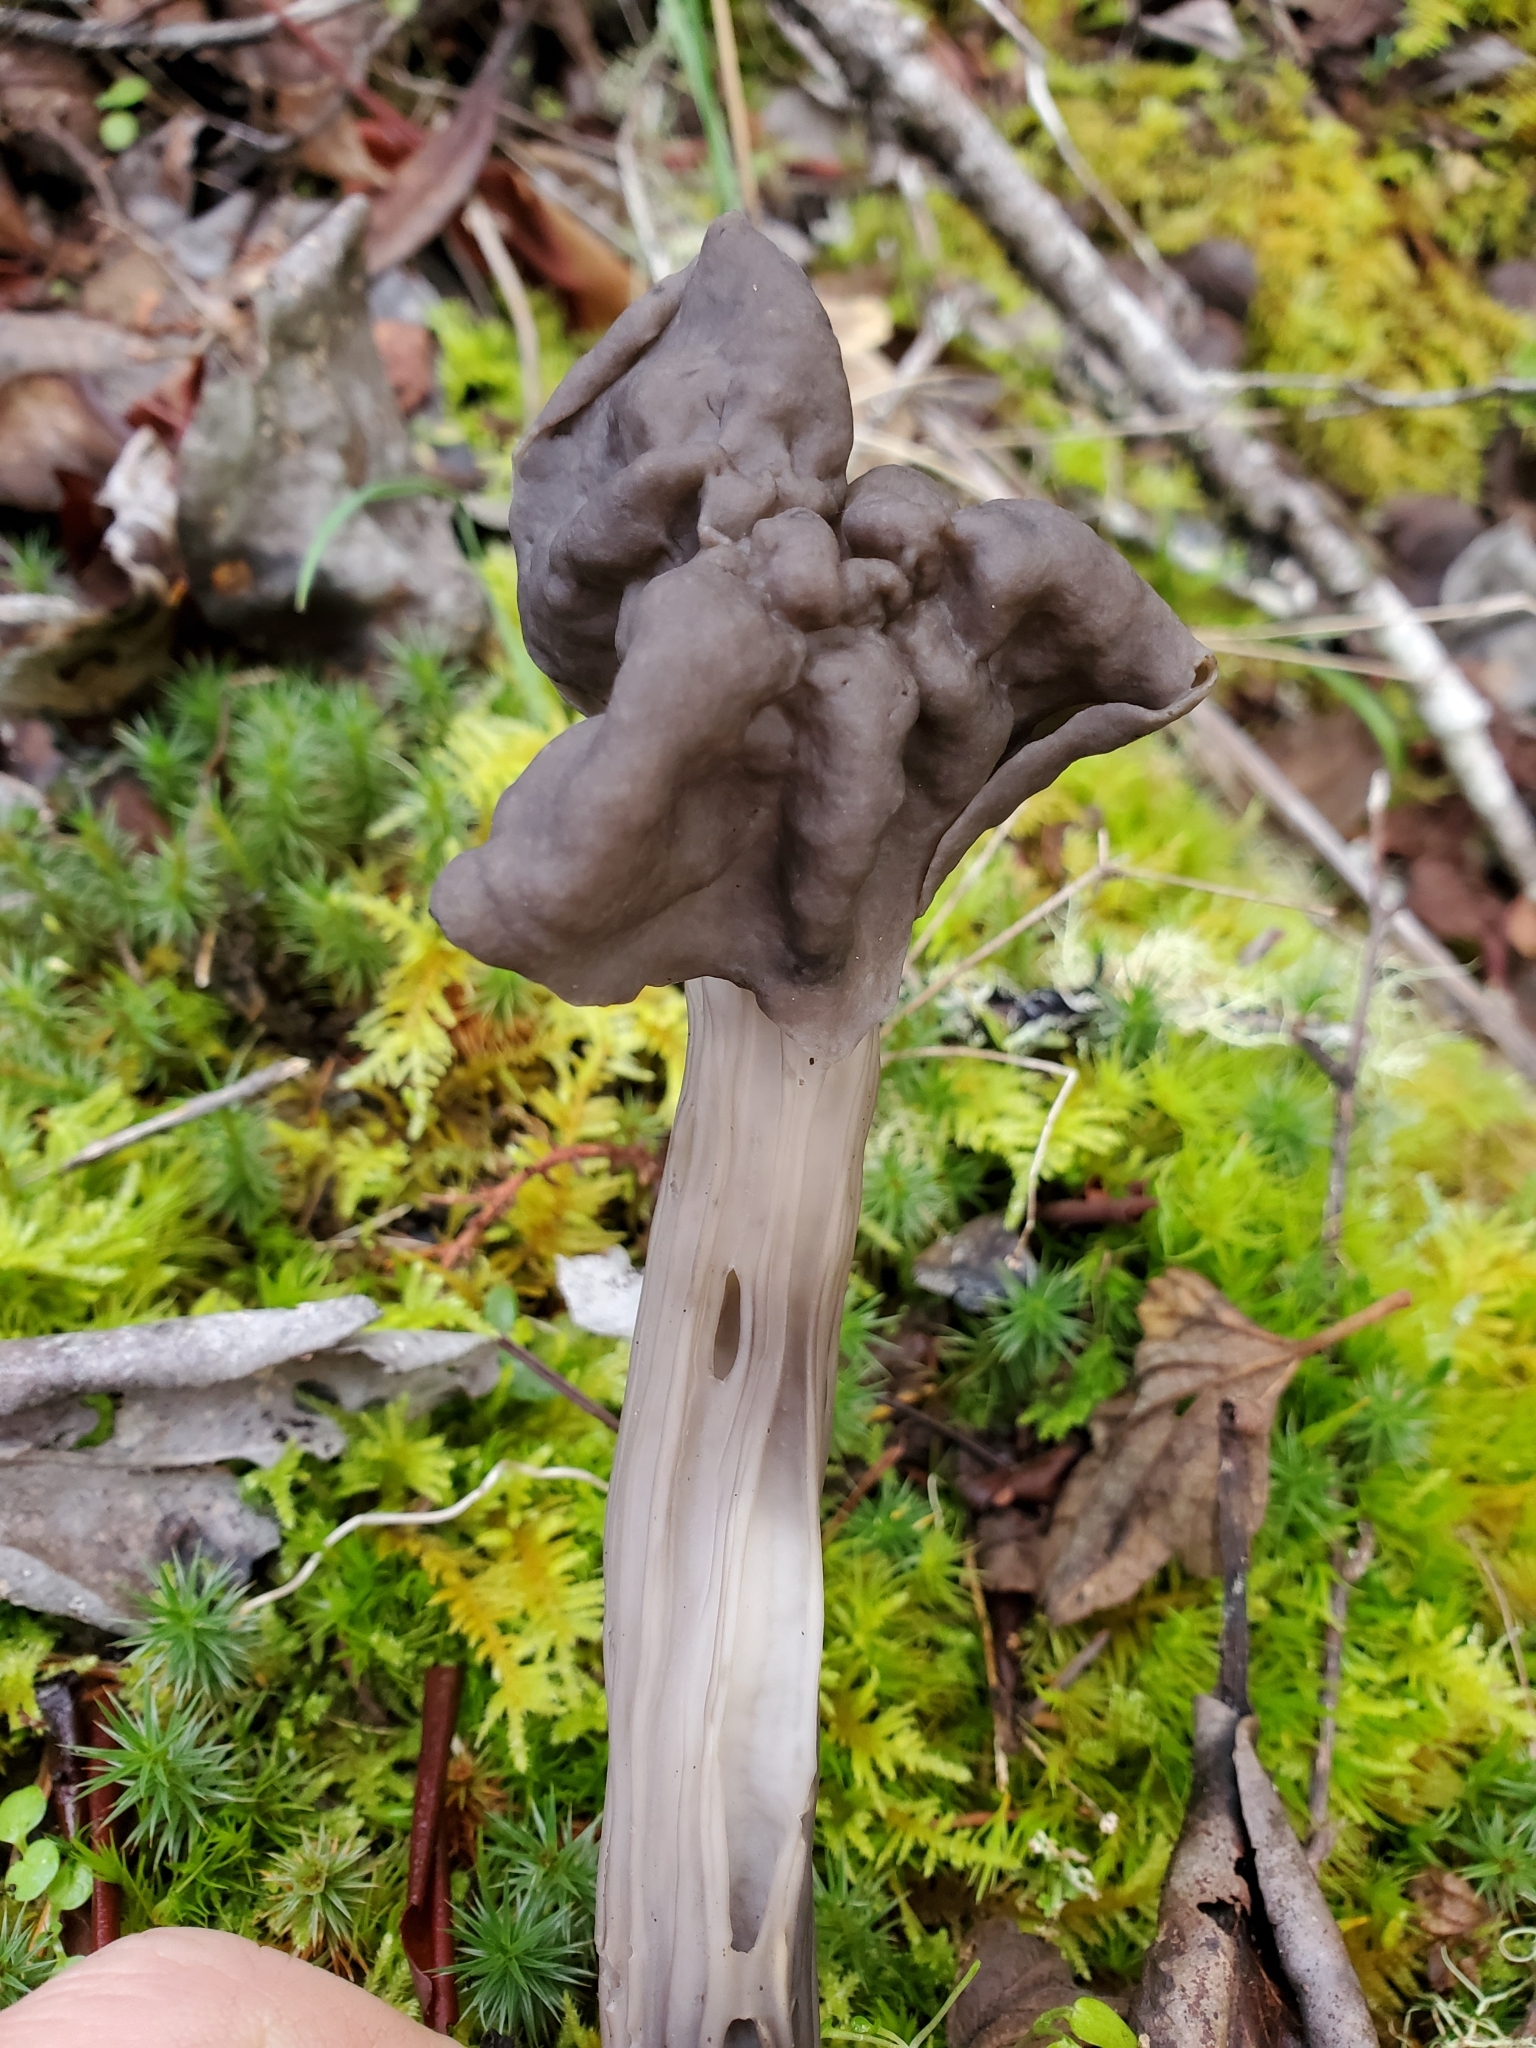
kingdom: Fungi
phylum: Ascomycota
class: Pezizomycetes
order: Pezizales
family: Helvellaceae
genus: Helvella
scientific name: Helvella vespertina
